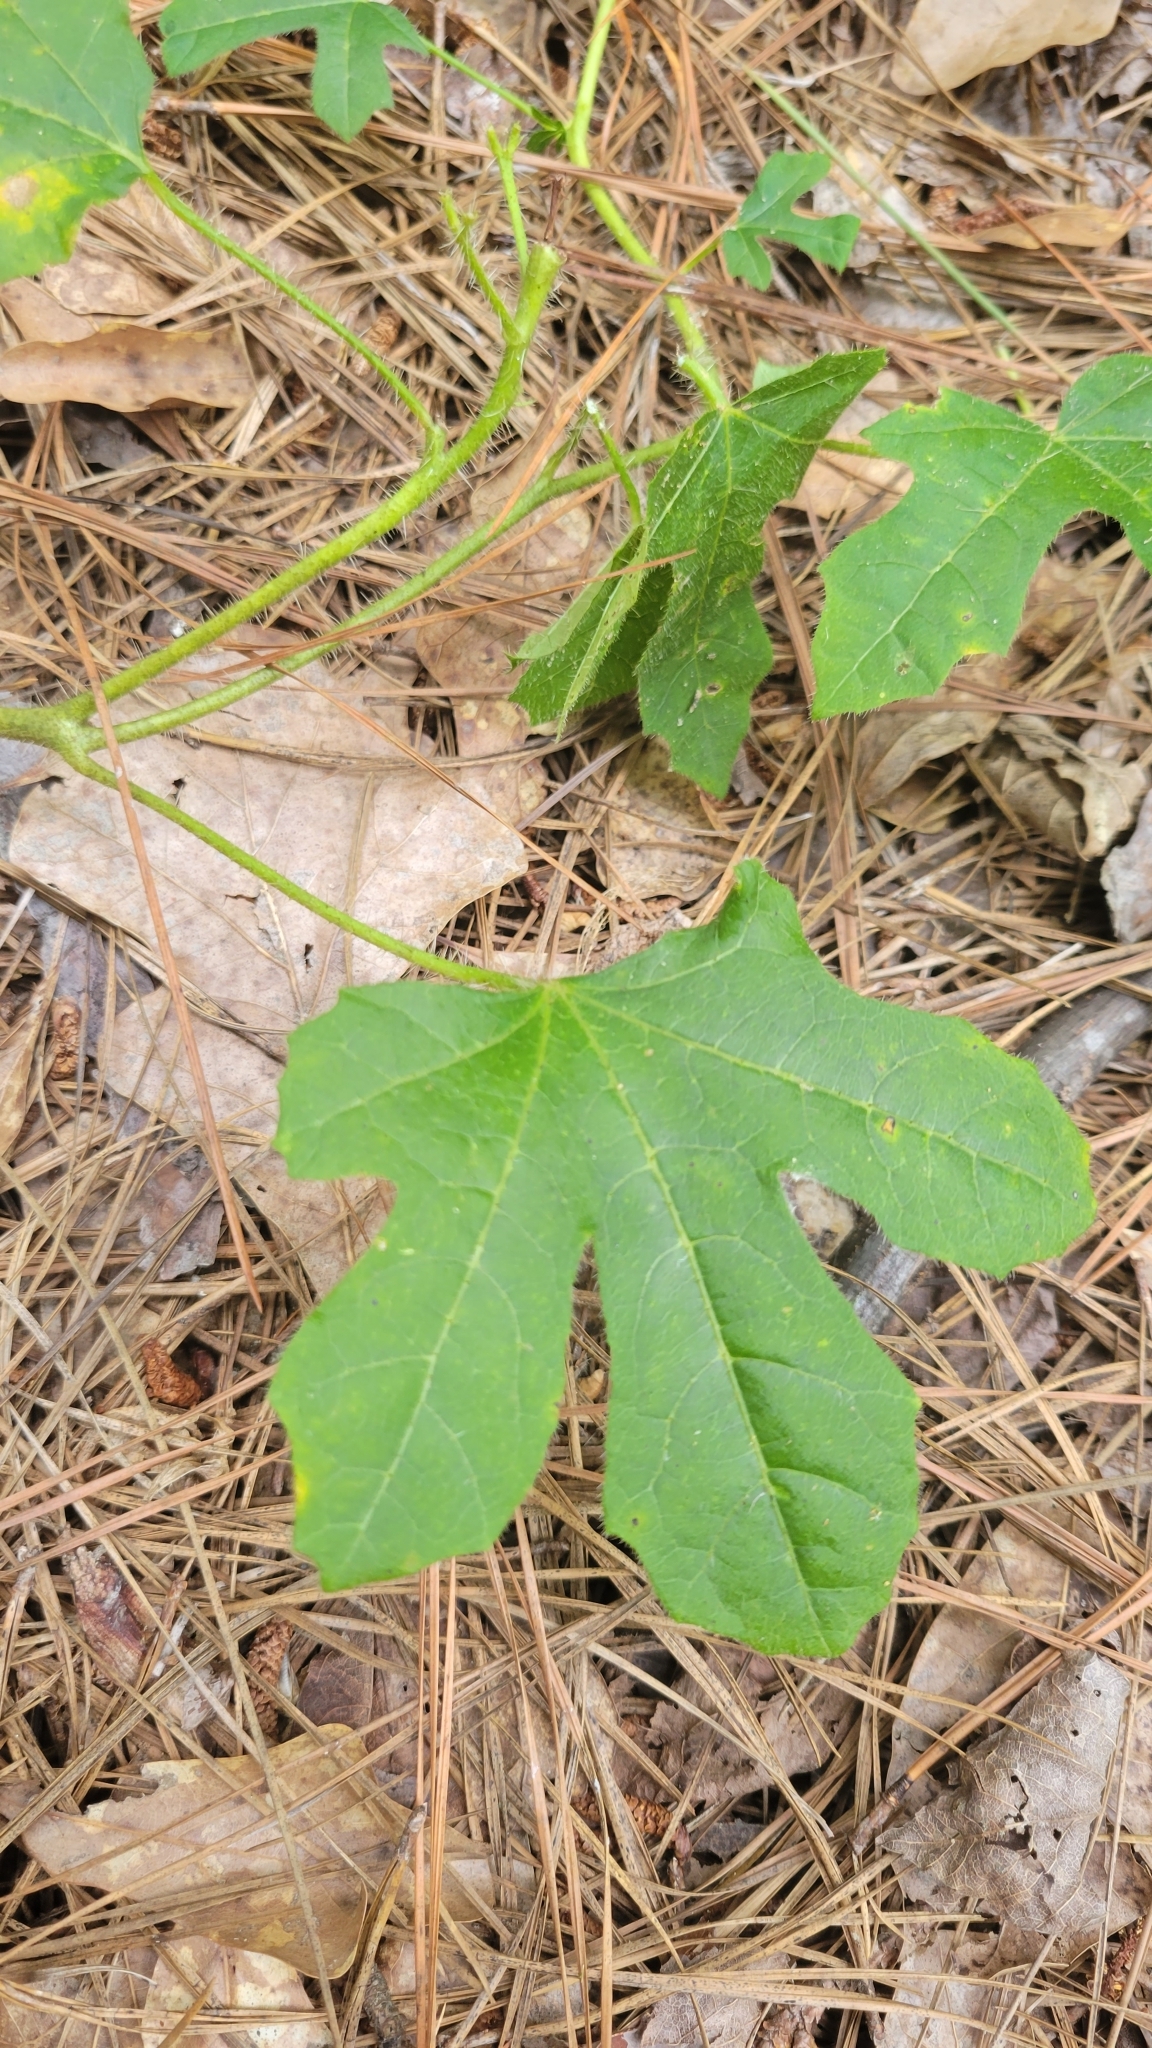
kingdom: Plantae
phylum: Tracheophyta
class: Magnoliopsida
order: Malpighiales
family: Euphorbiaceae
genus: Cnidoscolus
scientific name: Cnidoscolus stimulosus
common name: Bull-nettle
